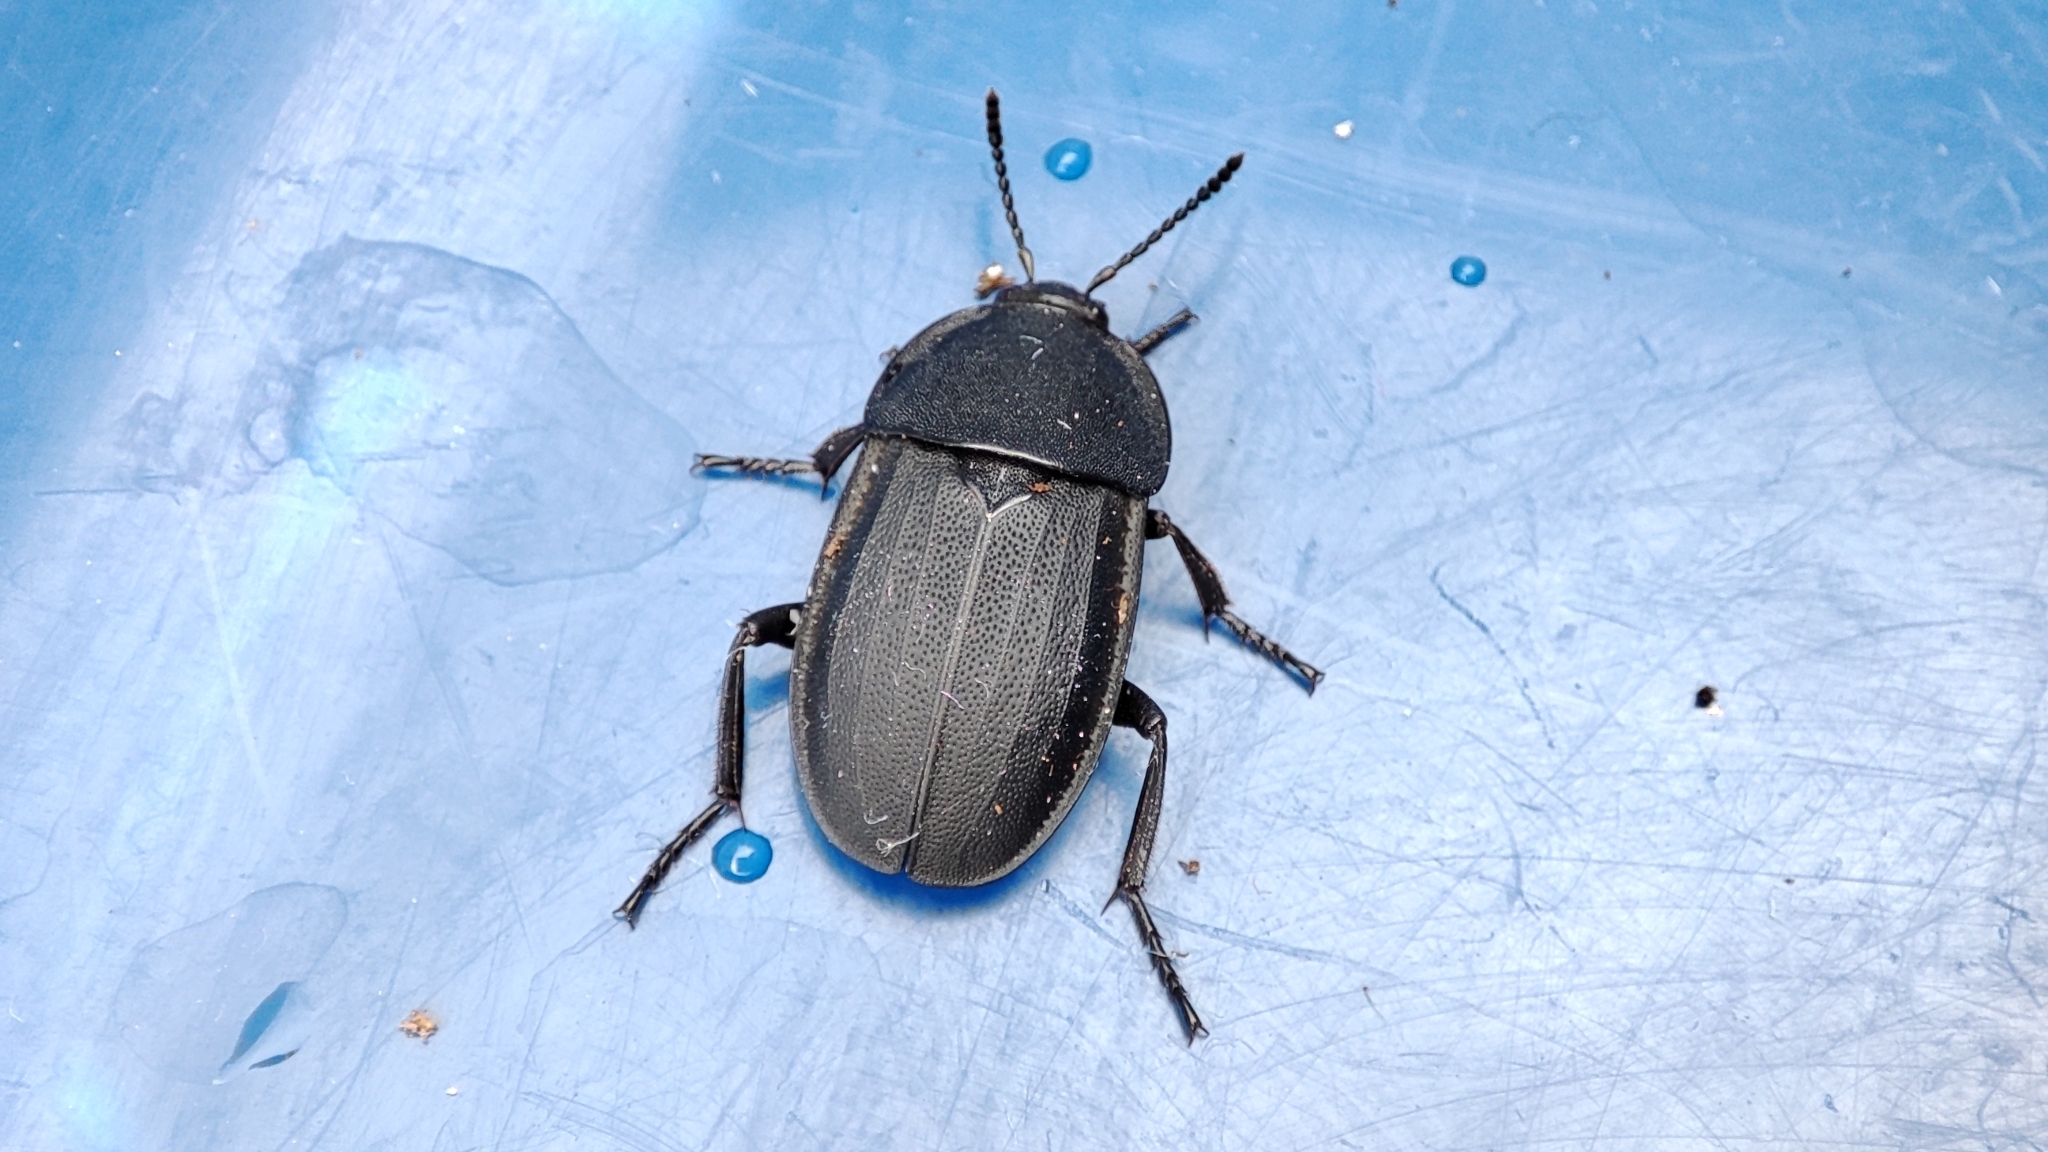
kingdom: Animalia
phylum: Arthropoda
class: Insecta
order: Coleoptera
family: Staphylinidae
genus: Silpha
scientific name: Silpha obscura
